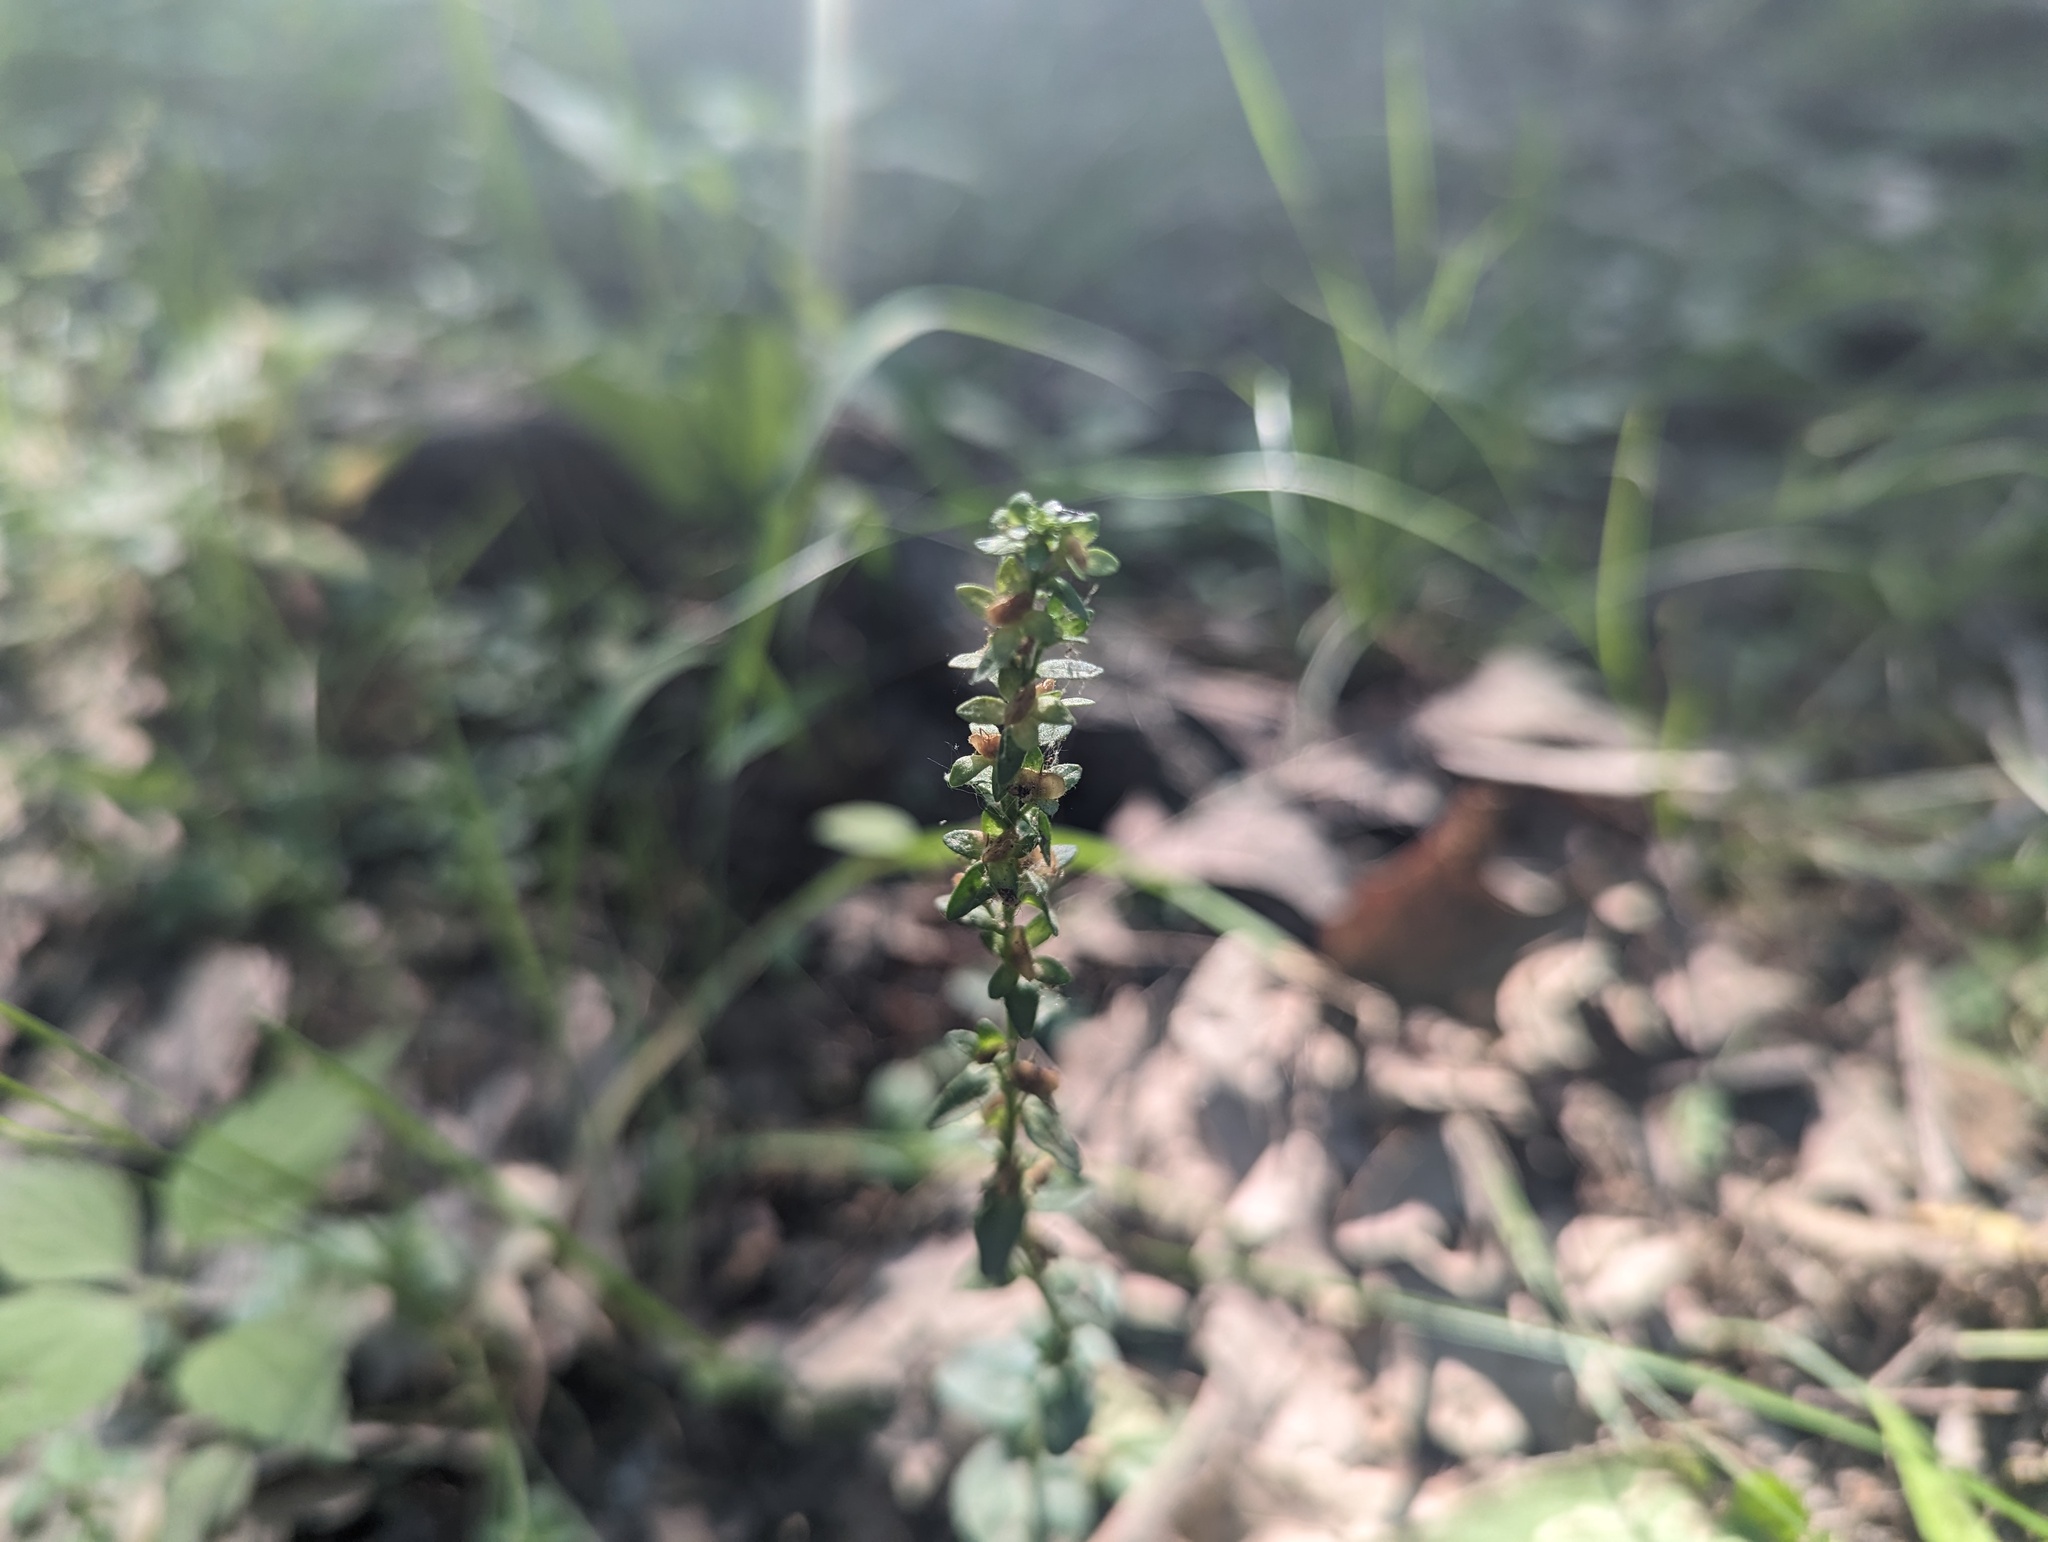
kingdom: Plantae
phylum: Tracheophyta
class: Magnoliopsida
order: Lamiales
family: Plantaginaceae
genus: Veronica
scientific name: Veronica serpyllifolia
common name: Thyme-leaved speedwell
